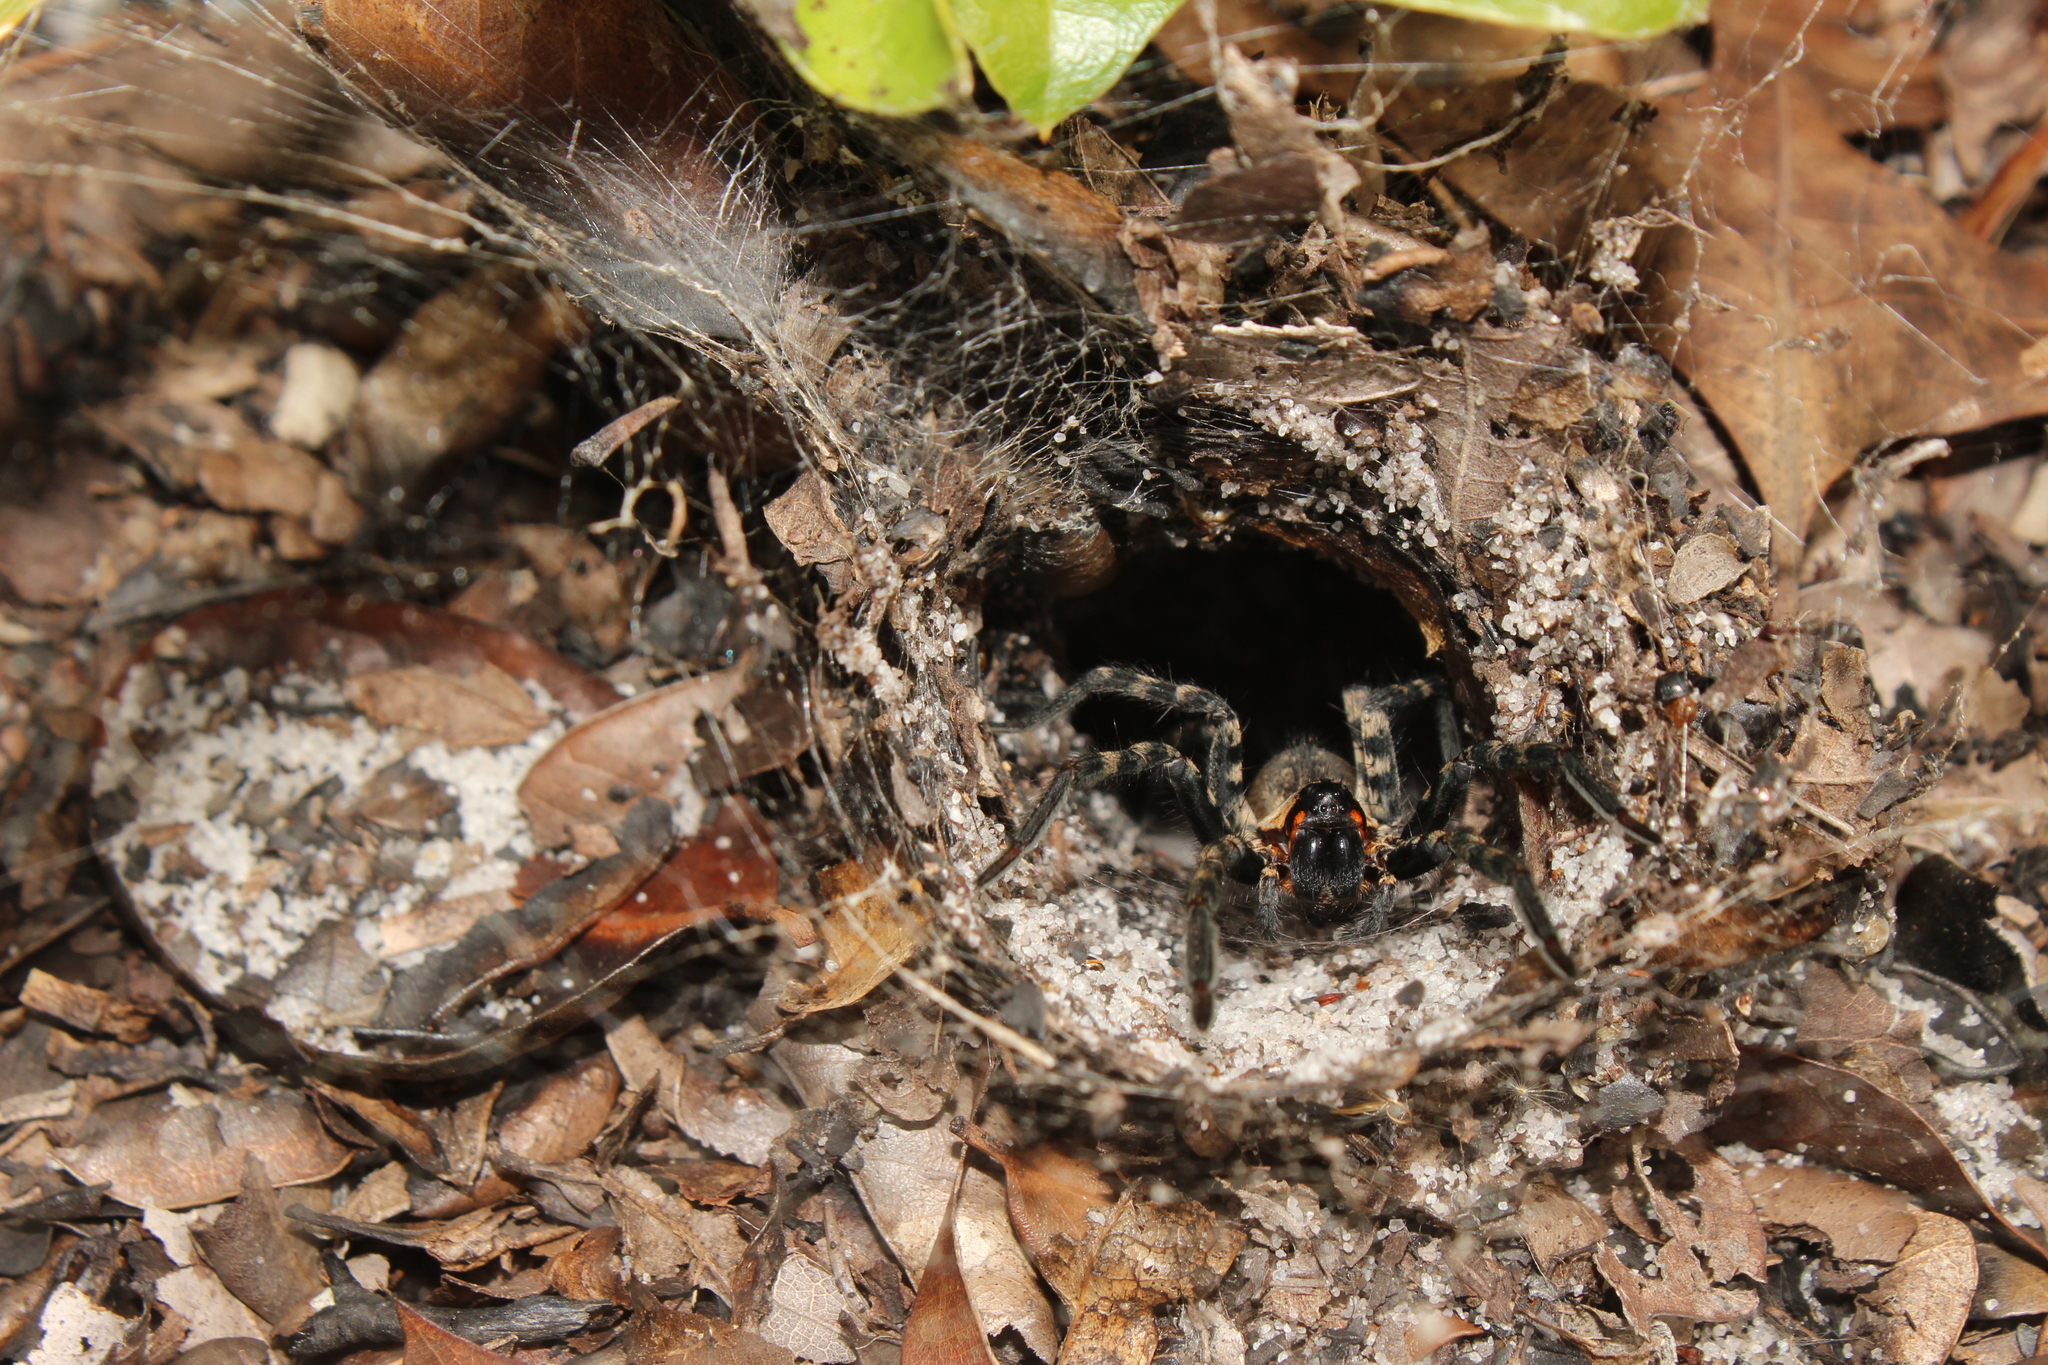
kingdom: Animalia
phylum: Arthropoda
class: Arachnida
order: Araneae
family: Lycosidae
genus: Sosippus
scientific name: Sosippus placidus
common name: Lake placid funnel wolf spider
